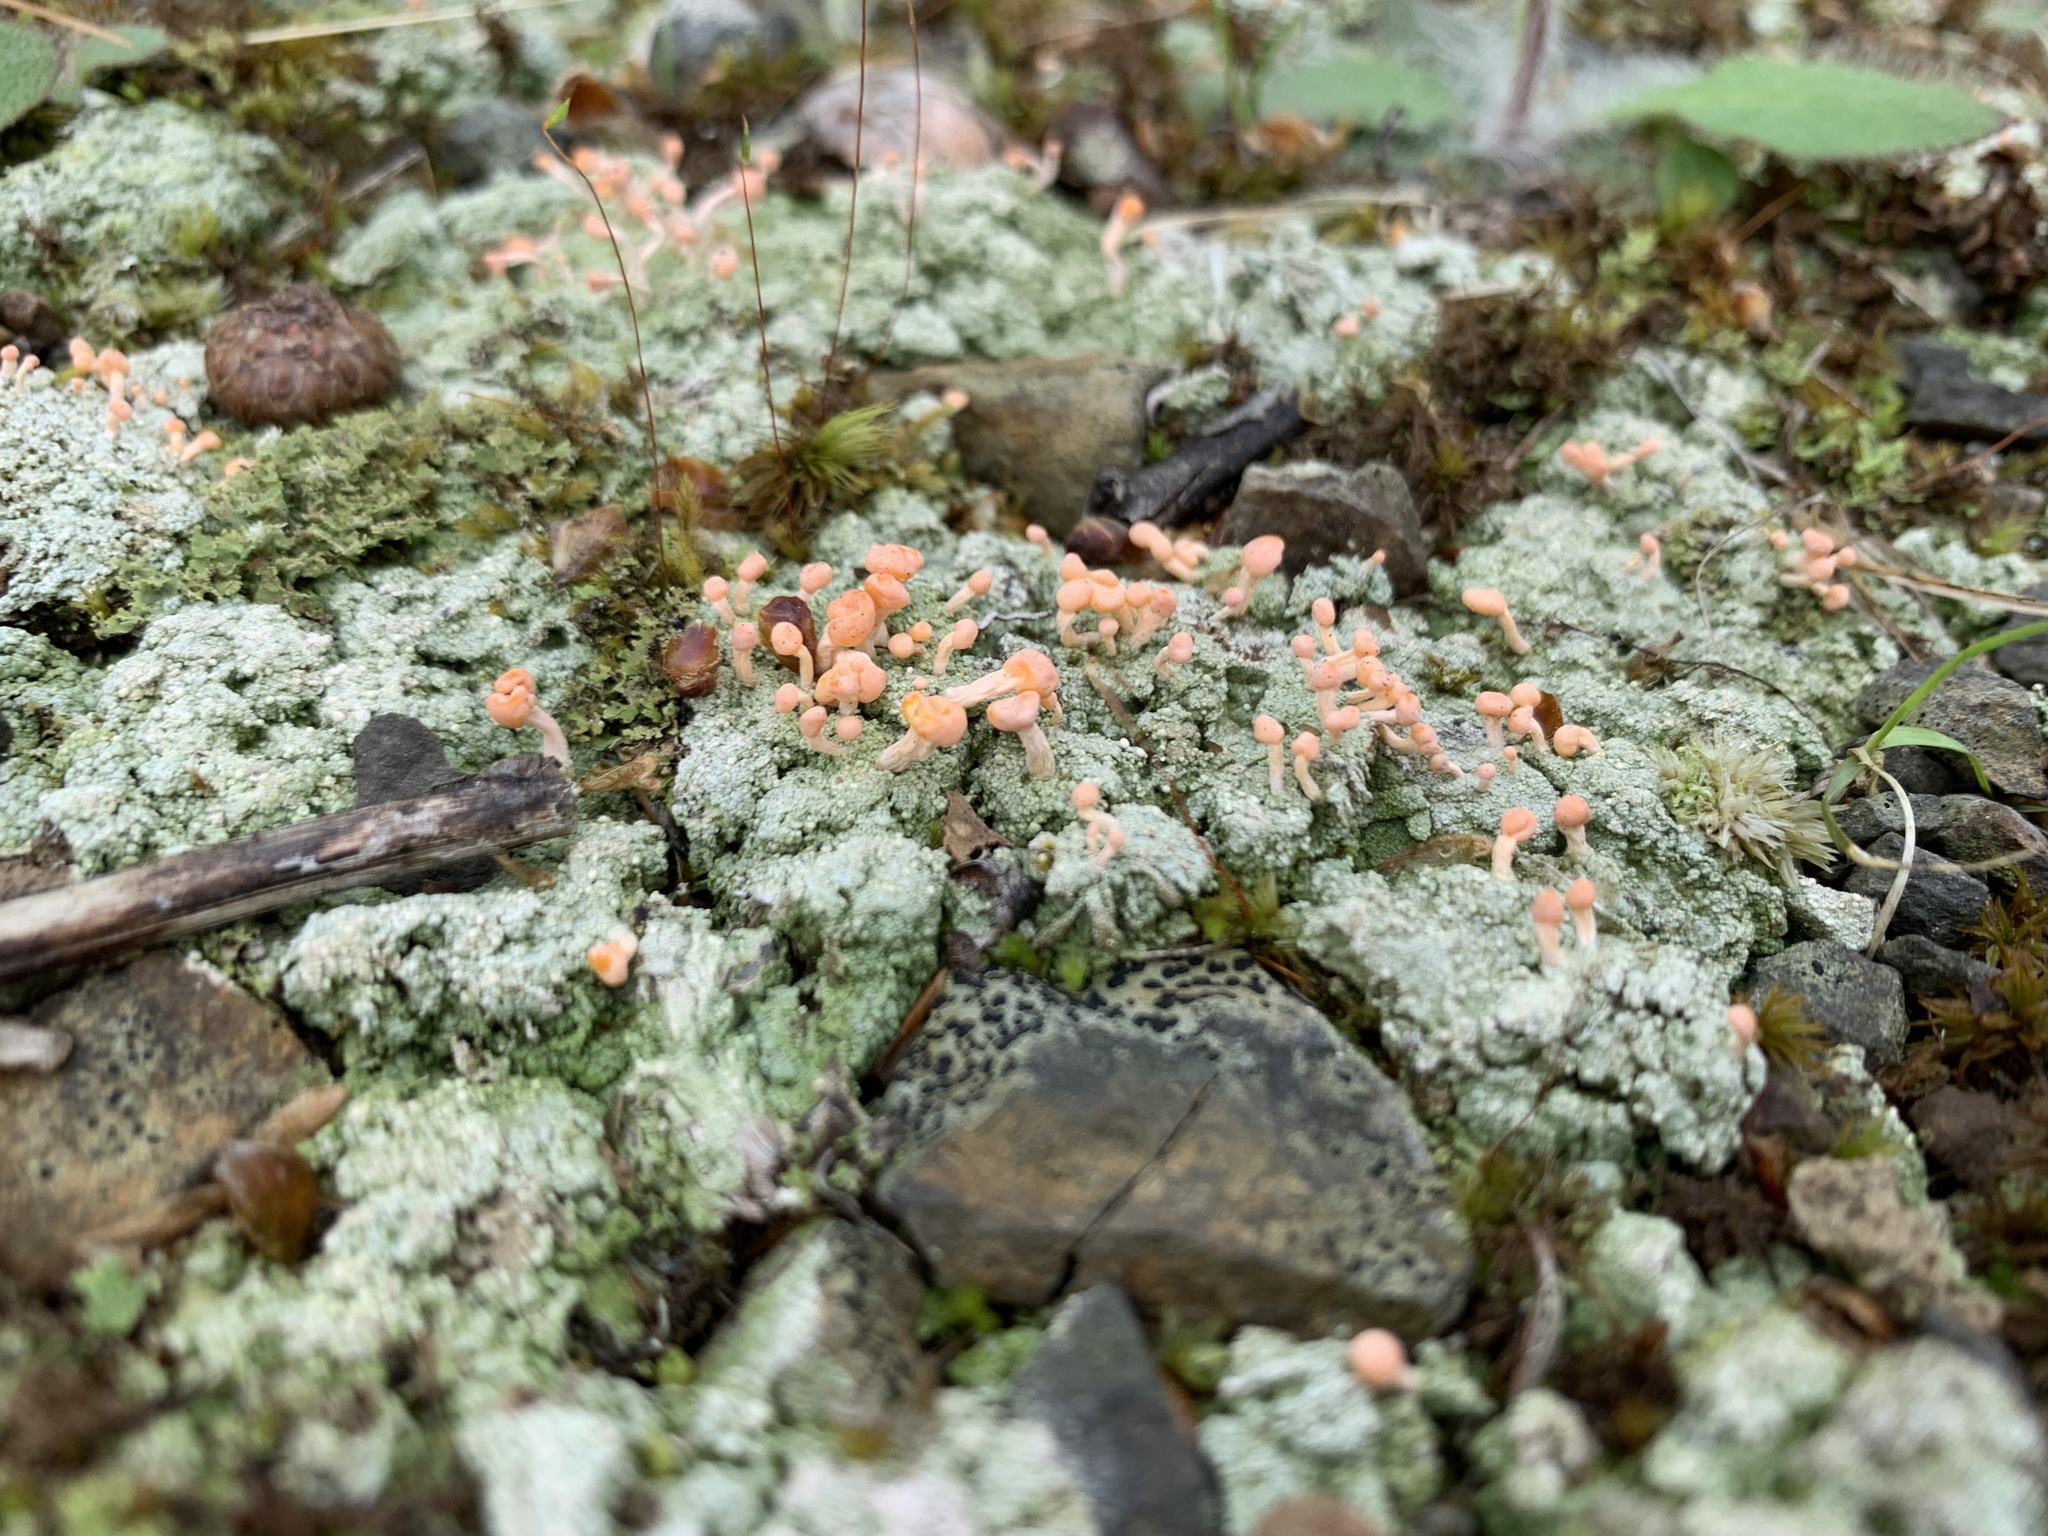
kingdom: Fungi
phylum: Ascomycota
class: Lecanoromycetes
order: Pertusariales
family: Icmadophilaceae
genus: Dibaeis
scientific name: Dibaeis baeomyces
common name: Pink earth lichen
